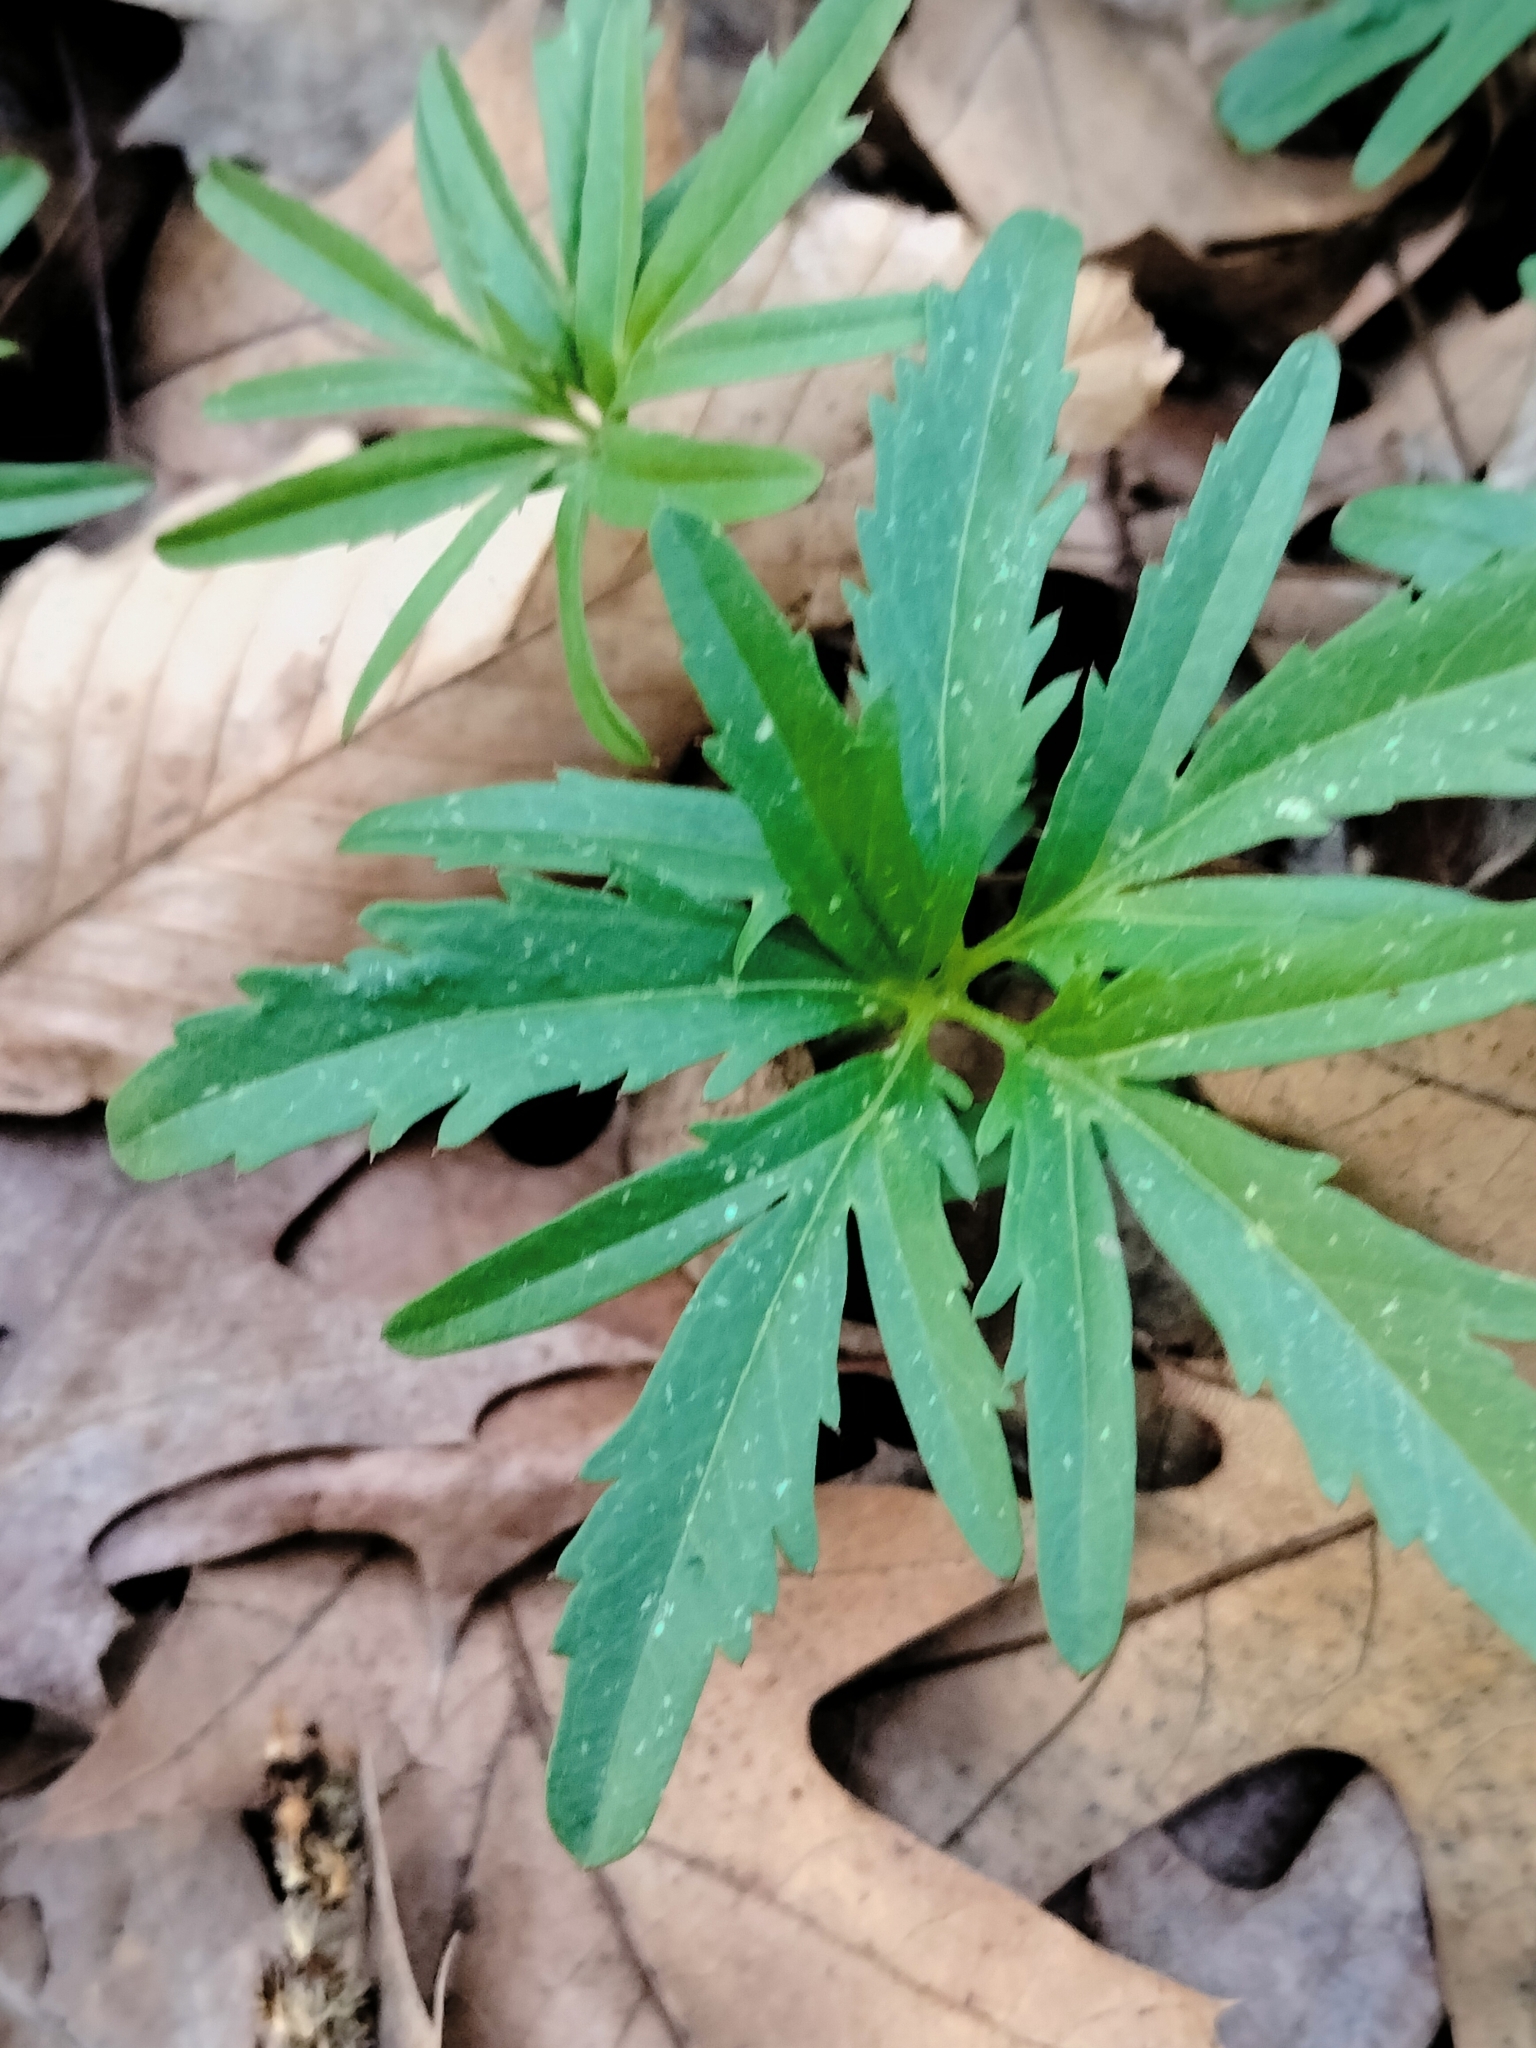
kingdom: Plantae
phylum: Tracheophyta
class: Magnoliopsida
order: Brassicales
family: Brassicaceae
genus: Cardamine
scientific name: Cardamine concatenata
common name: Cut-leaf toothcup
